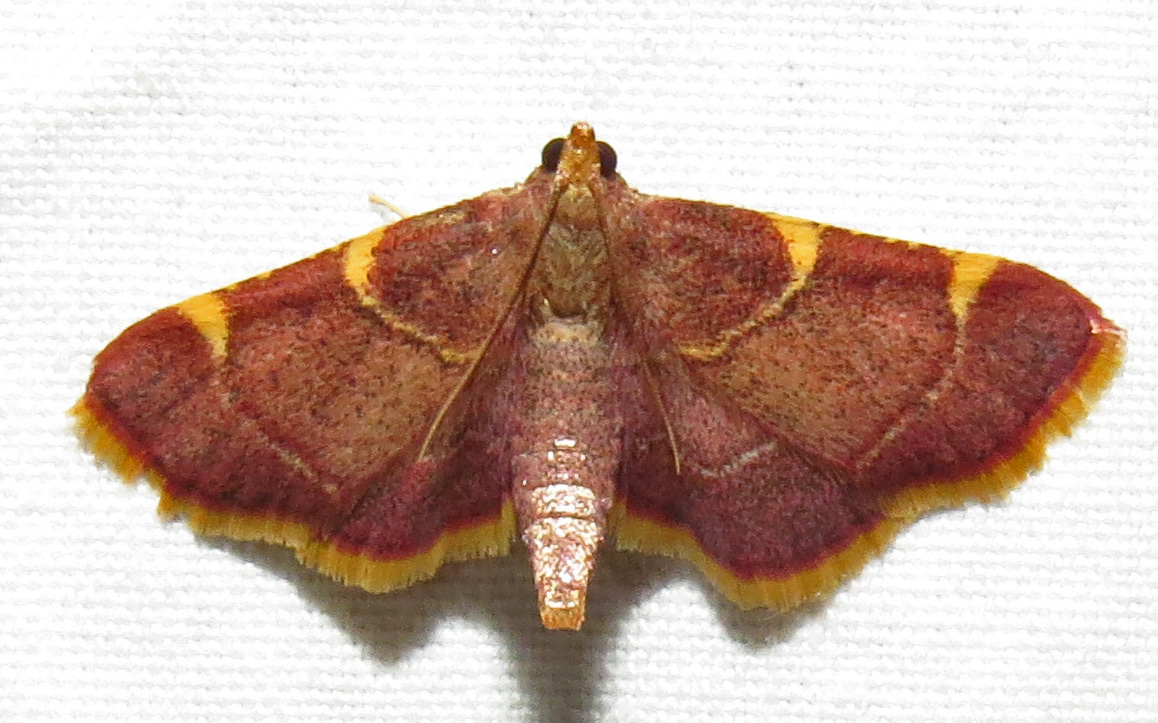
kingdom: Animalia
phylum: Arthropoda
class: Insecta
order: Lepidoptera
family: Pyralidae
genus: Hypsopygia
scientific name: Hypsopygia olinalis
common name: Yellow-fringed dolichomia moth
